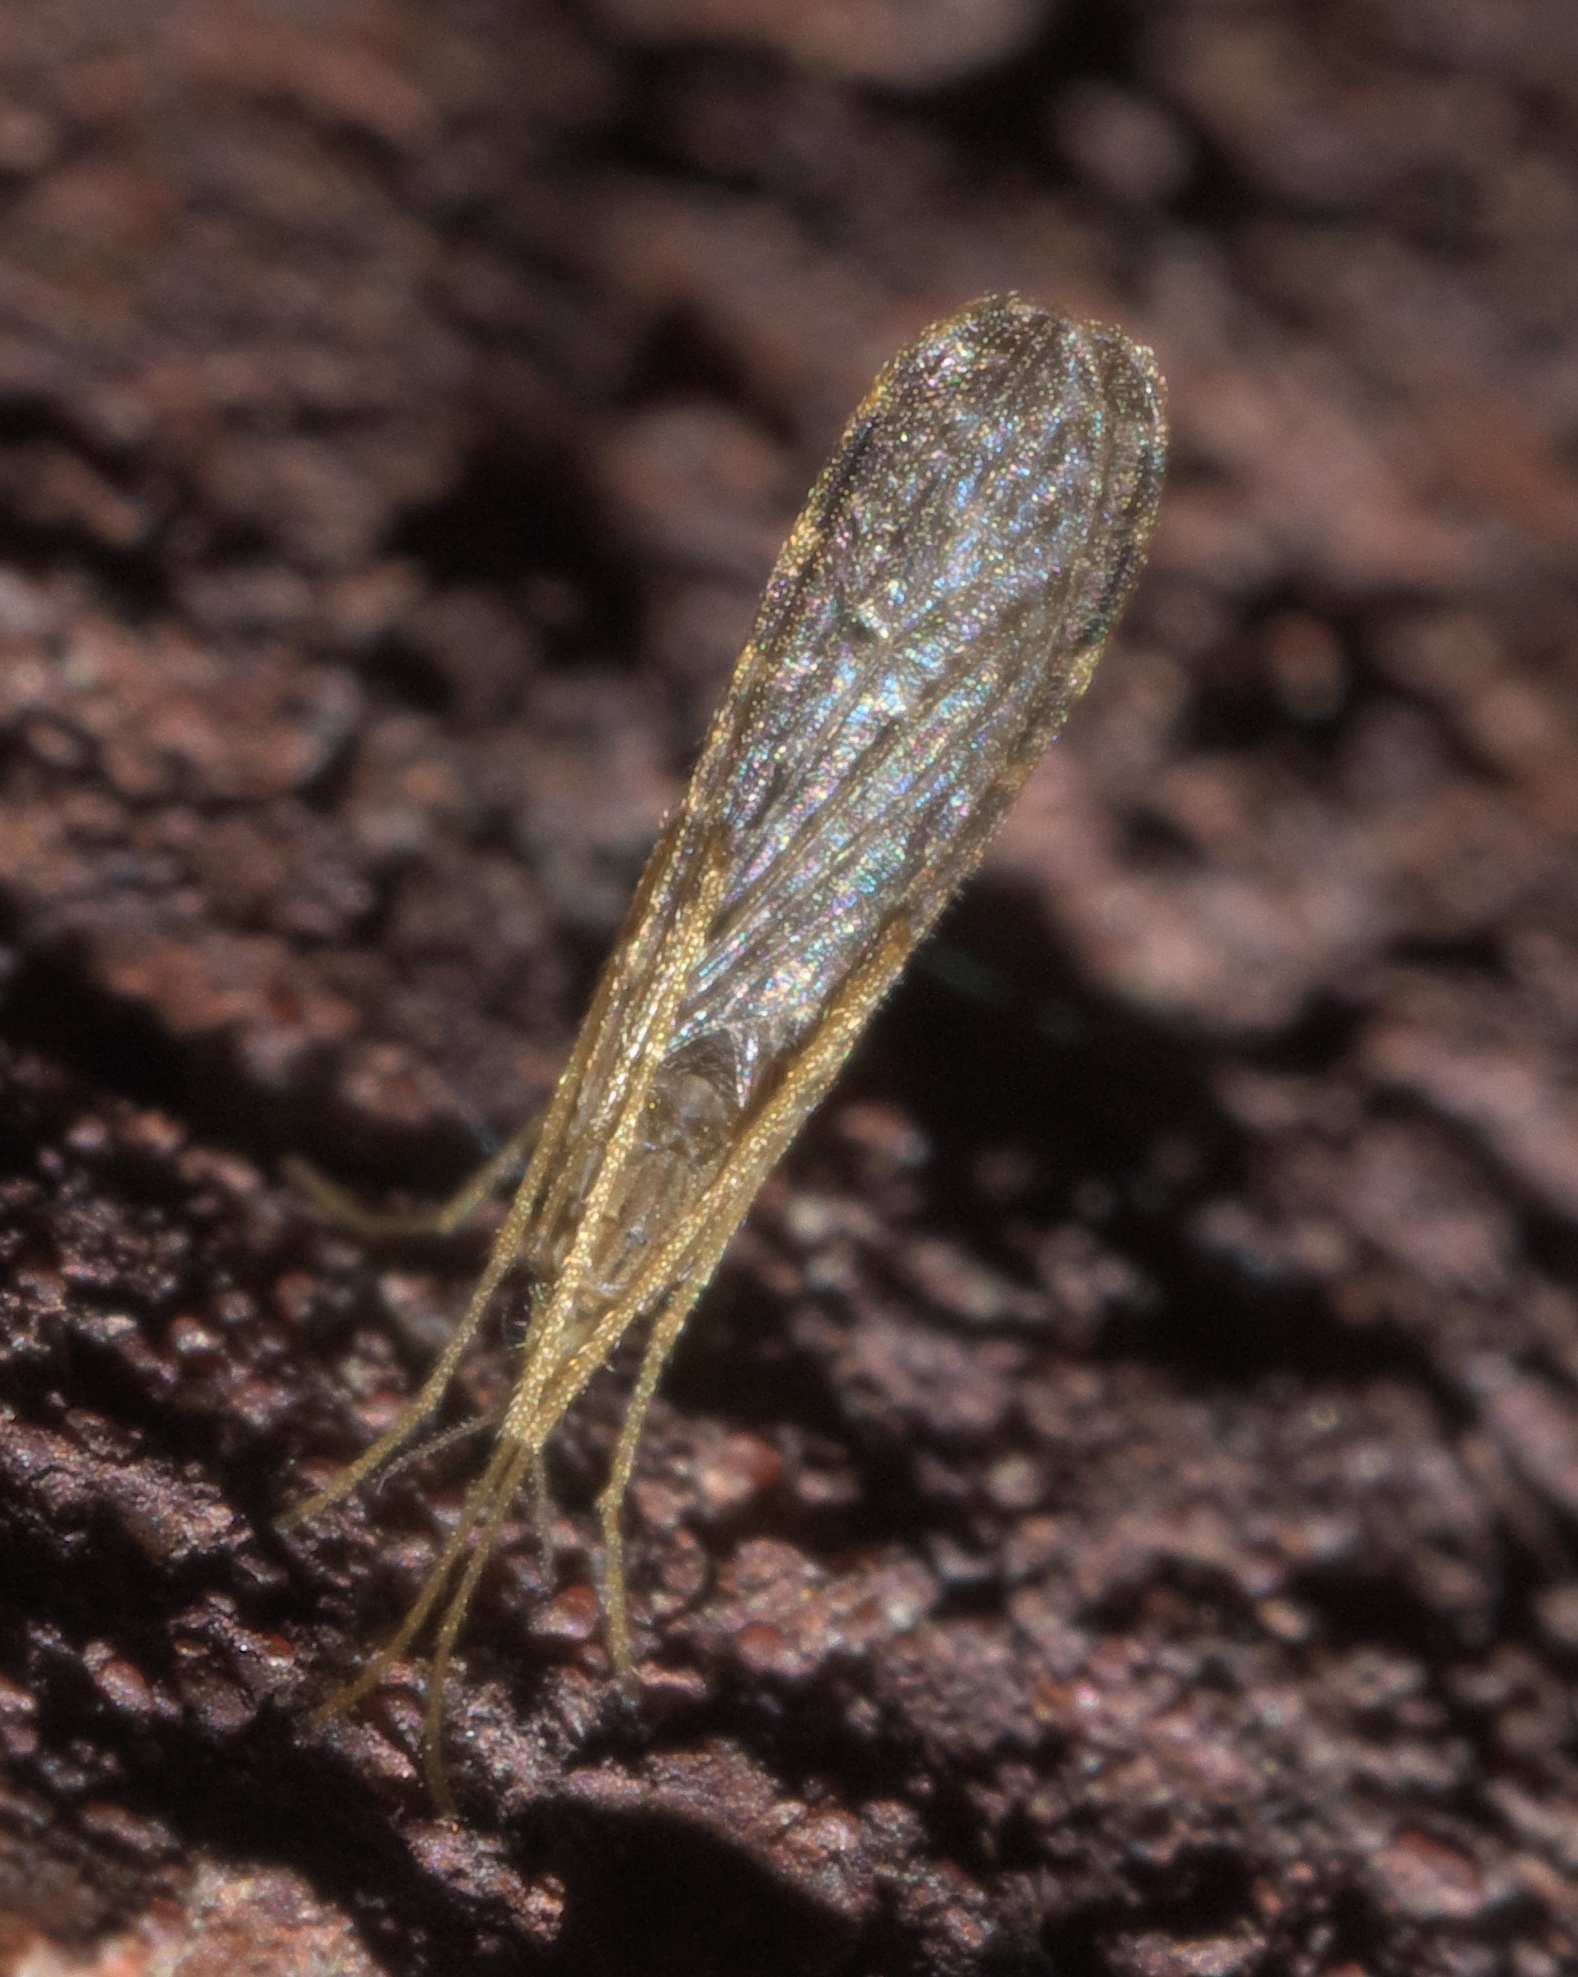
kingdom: Animalia
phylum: Arthropoda
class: Insecta
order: Diptera
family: Limoniidae
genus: Erioptera
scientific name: Erioptera tantilla
